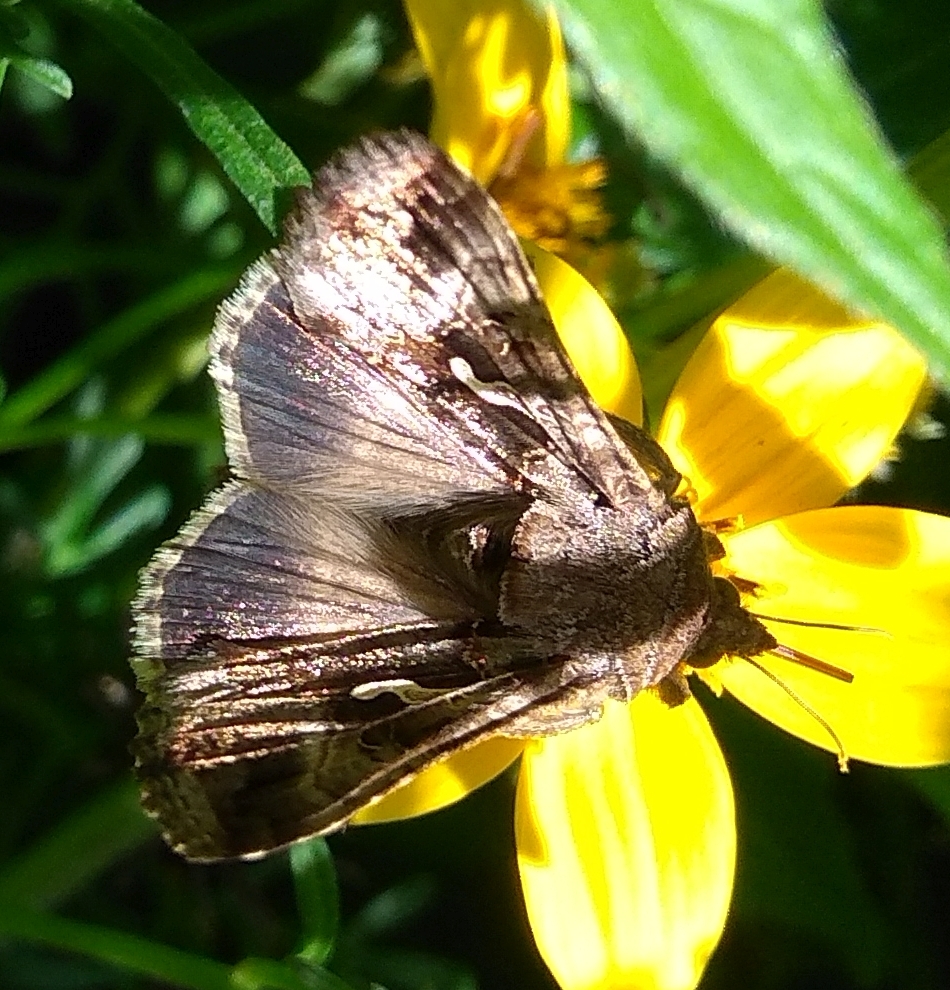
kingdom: Animalia
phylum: Arthropoda
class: Insecta
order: Lepidoptera
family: Noctuidae
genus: Autographa
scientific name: Autographa gamma
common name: Silver y
